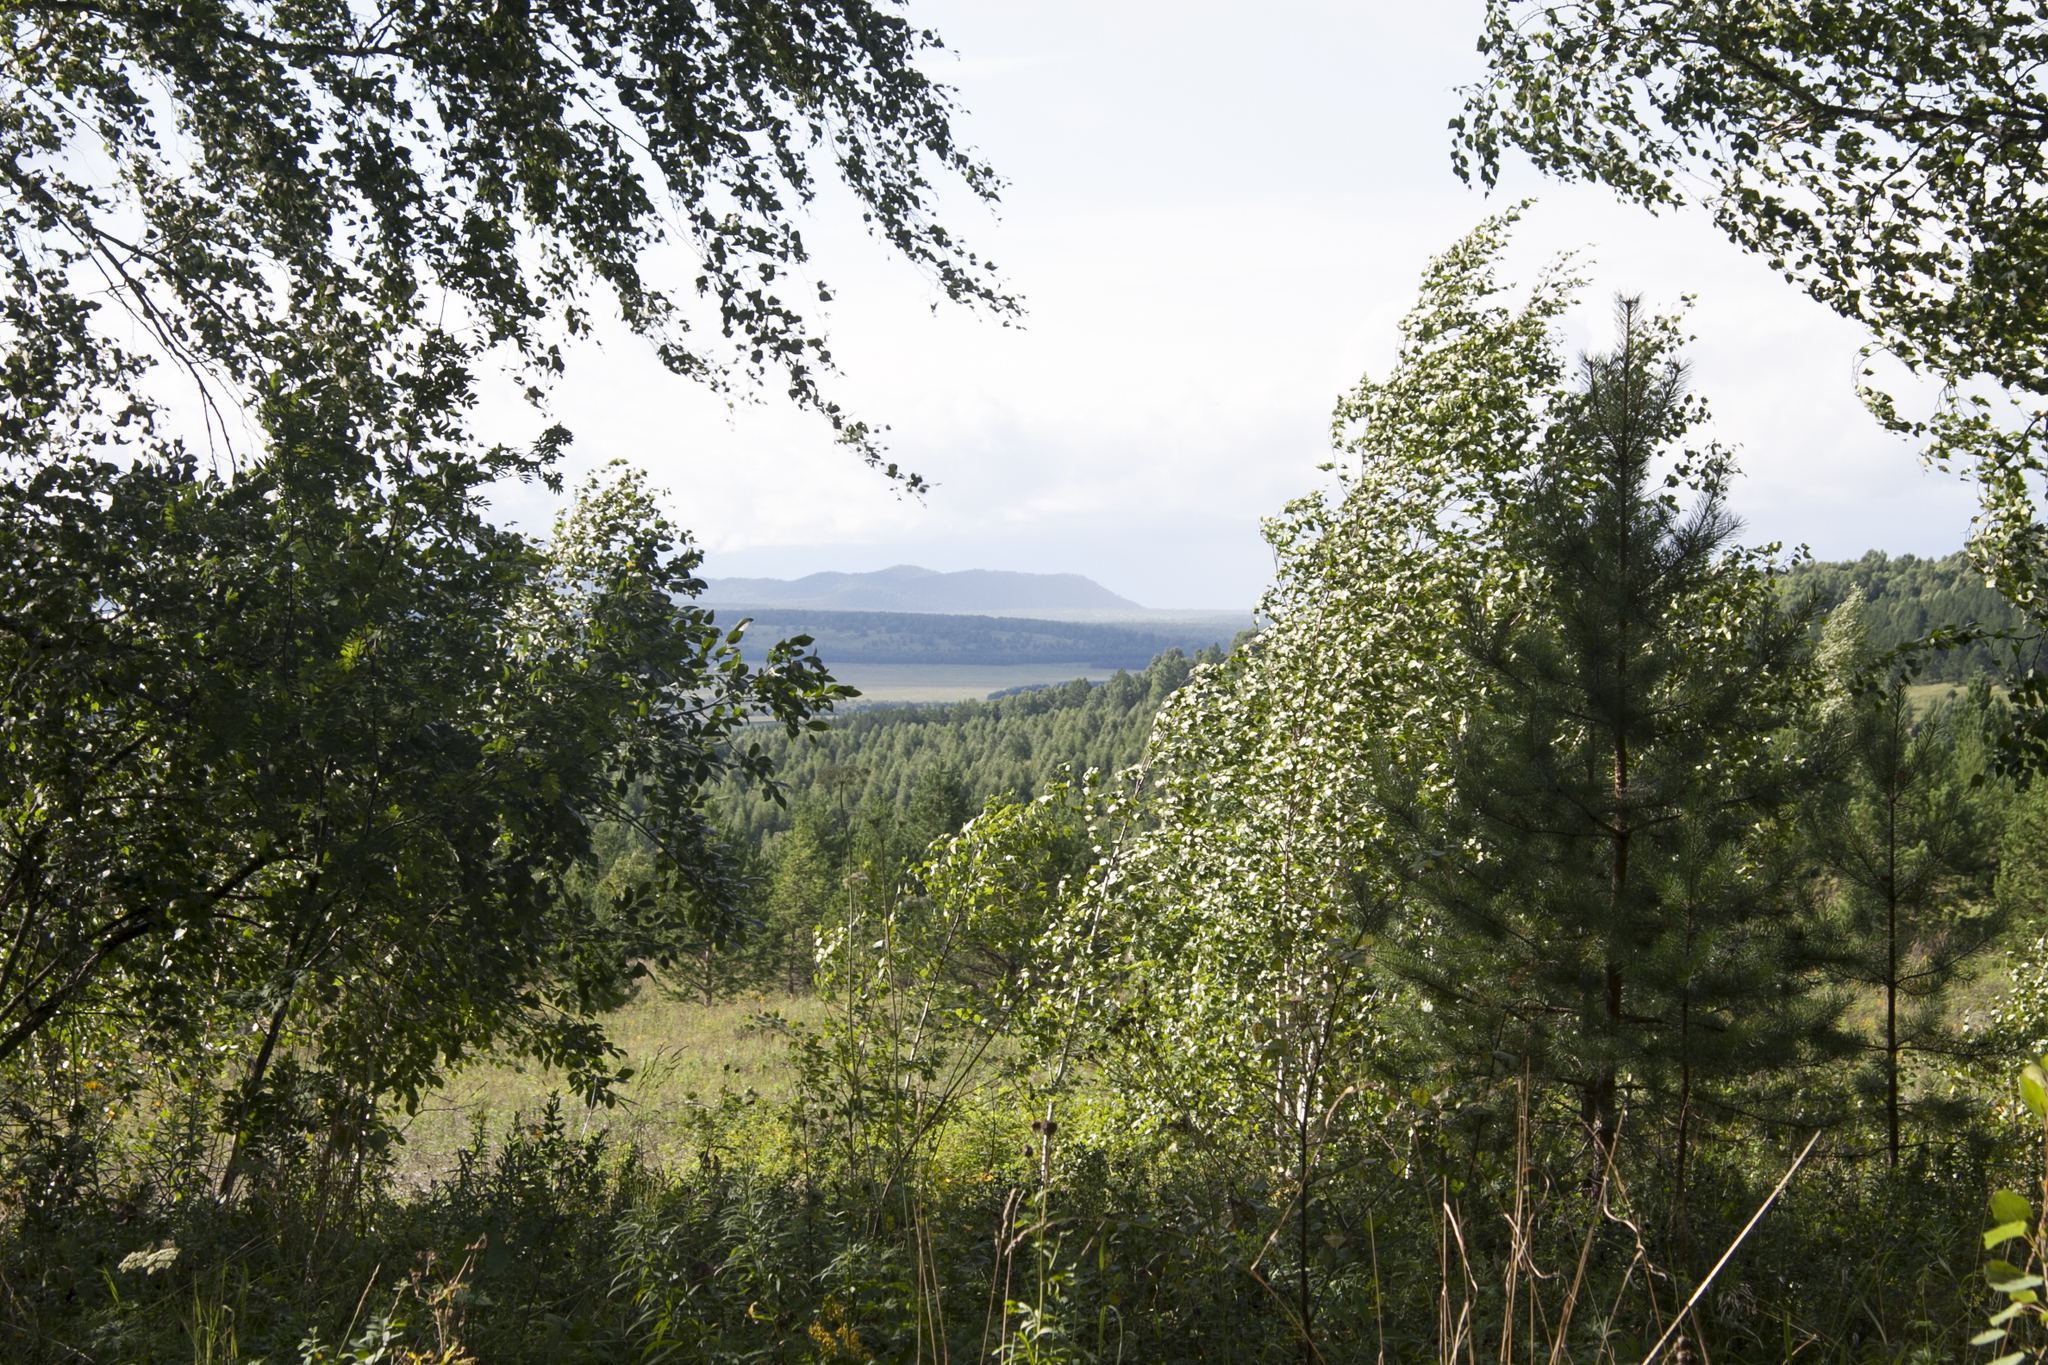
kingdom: Plantae
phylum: Tracheophyta
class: Magnoliopsida
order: Fagales
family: Betulaceae
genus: Betula
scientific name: Betula pendula
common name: Silver birch
